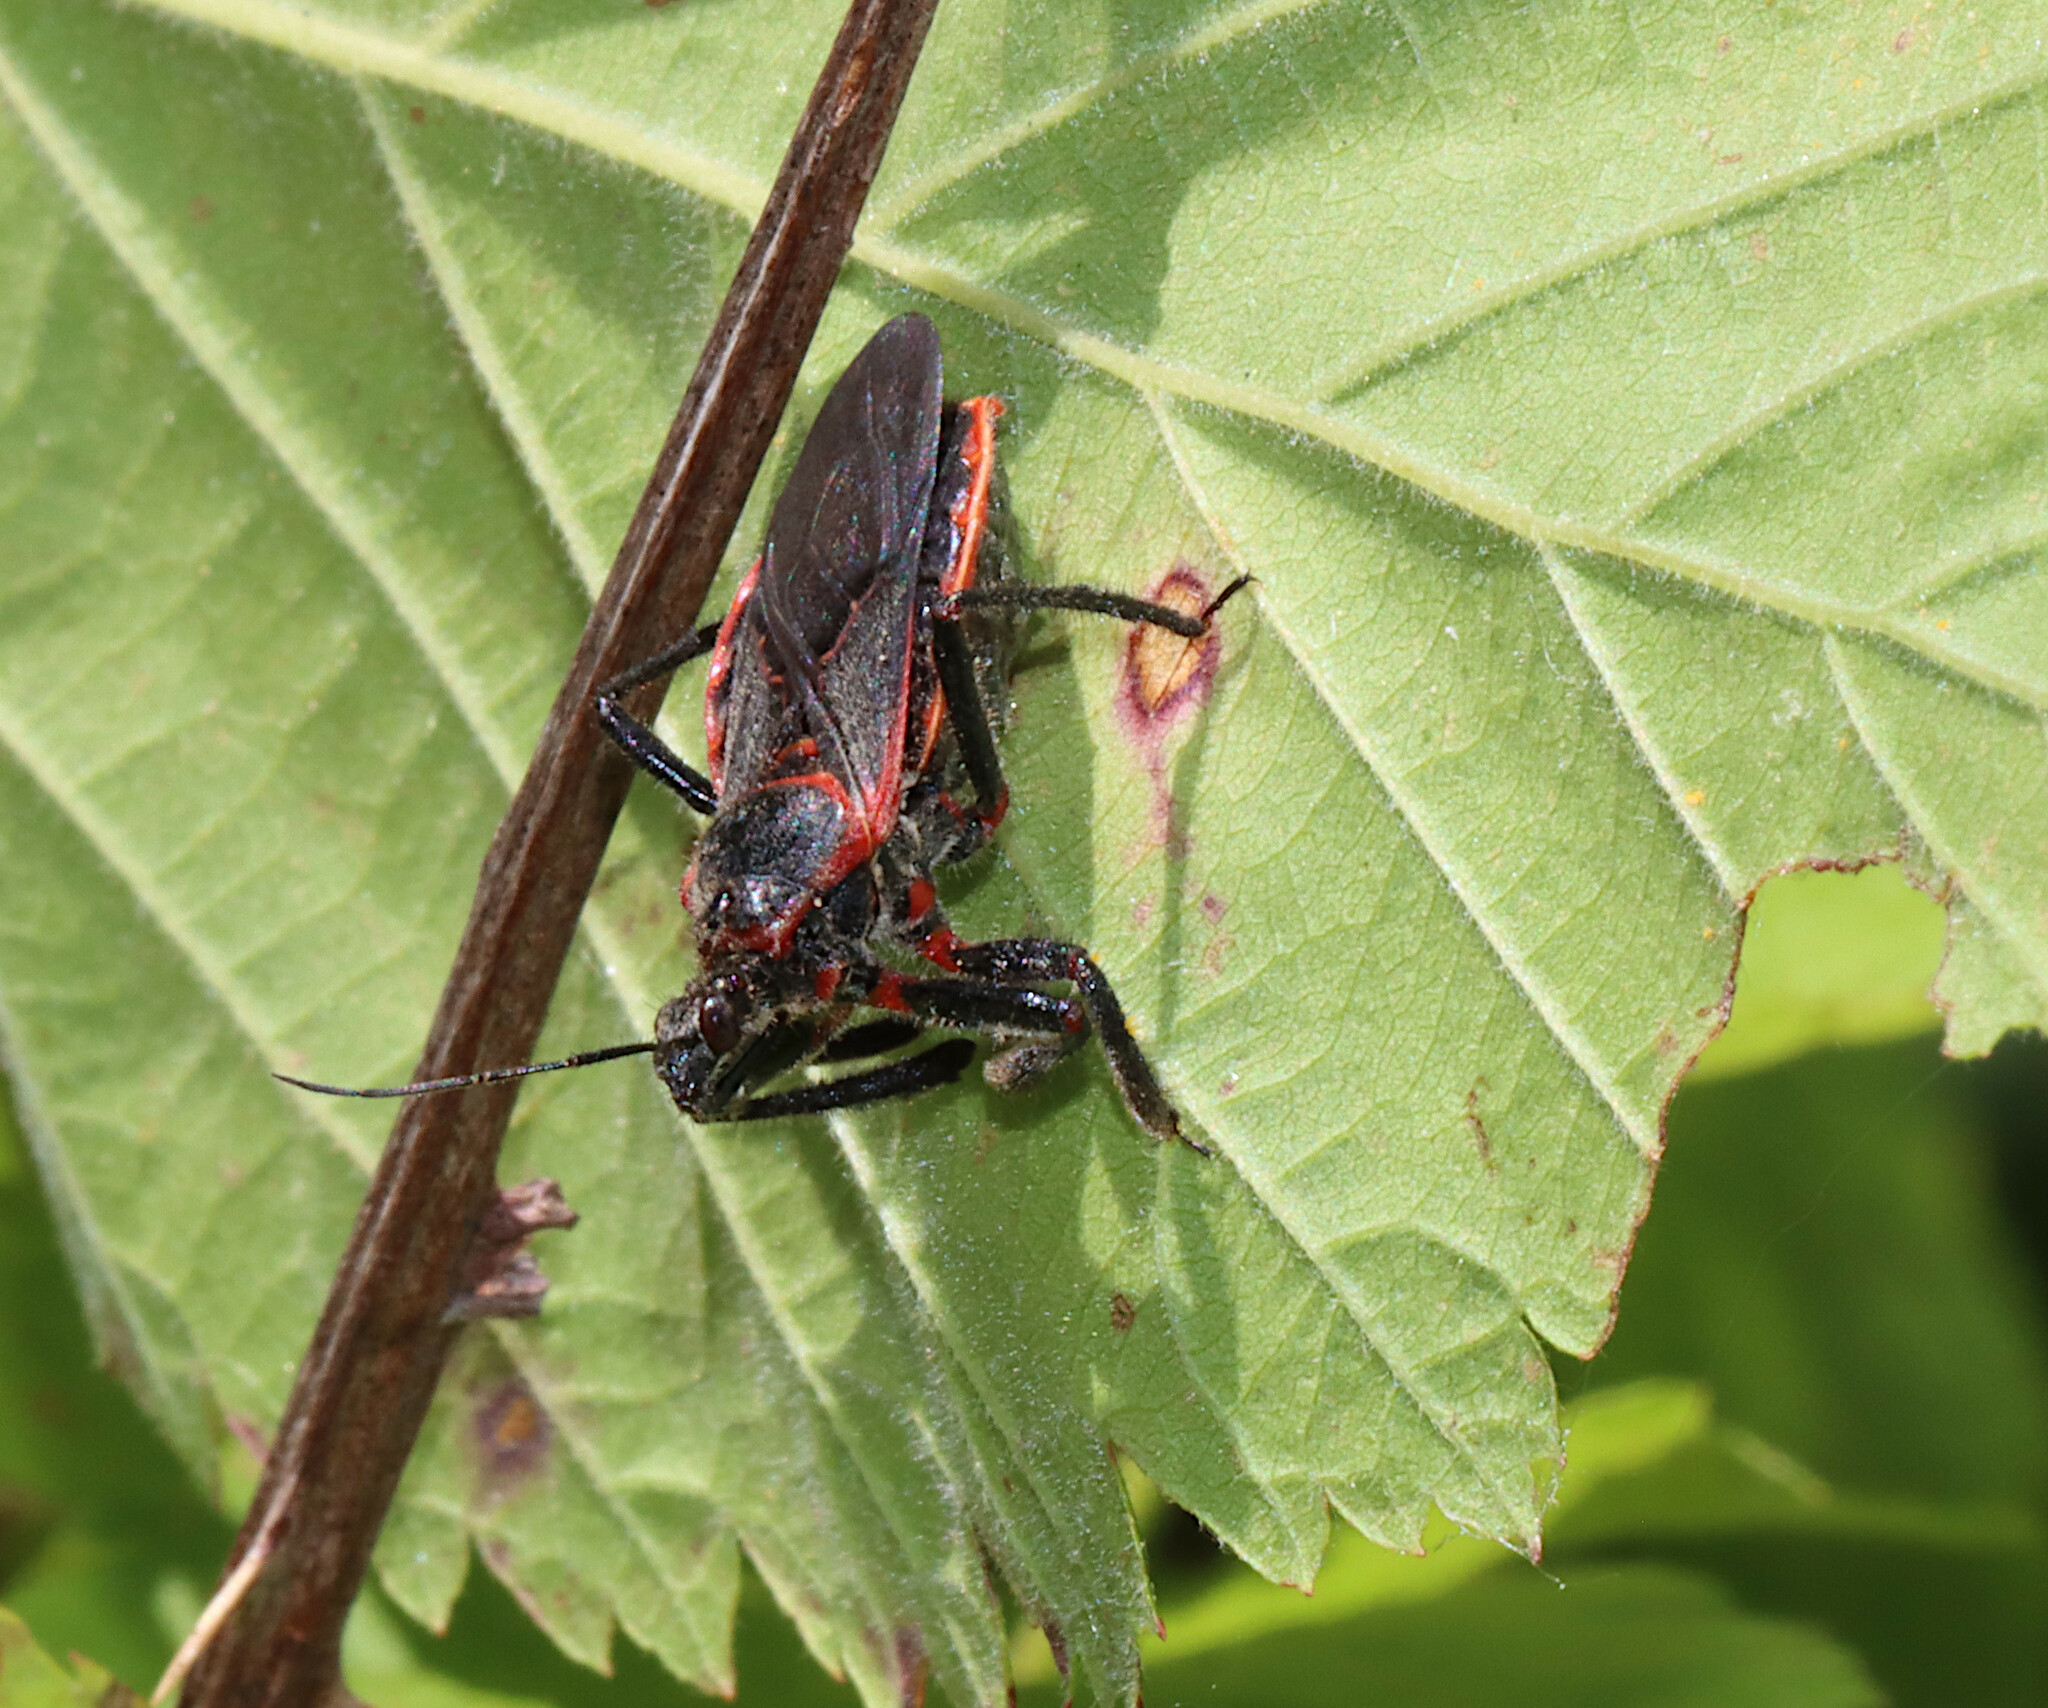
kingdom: Animalia
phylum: Arthropoda
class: Insecta
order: Hemiptera
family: Reduviidae
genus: Apiomerus
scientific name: Apiomerus crassipes
